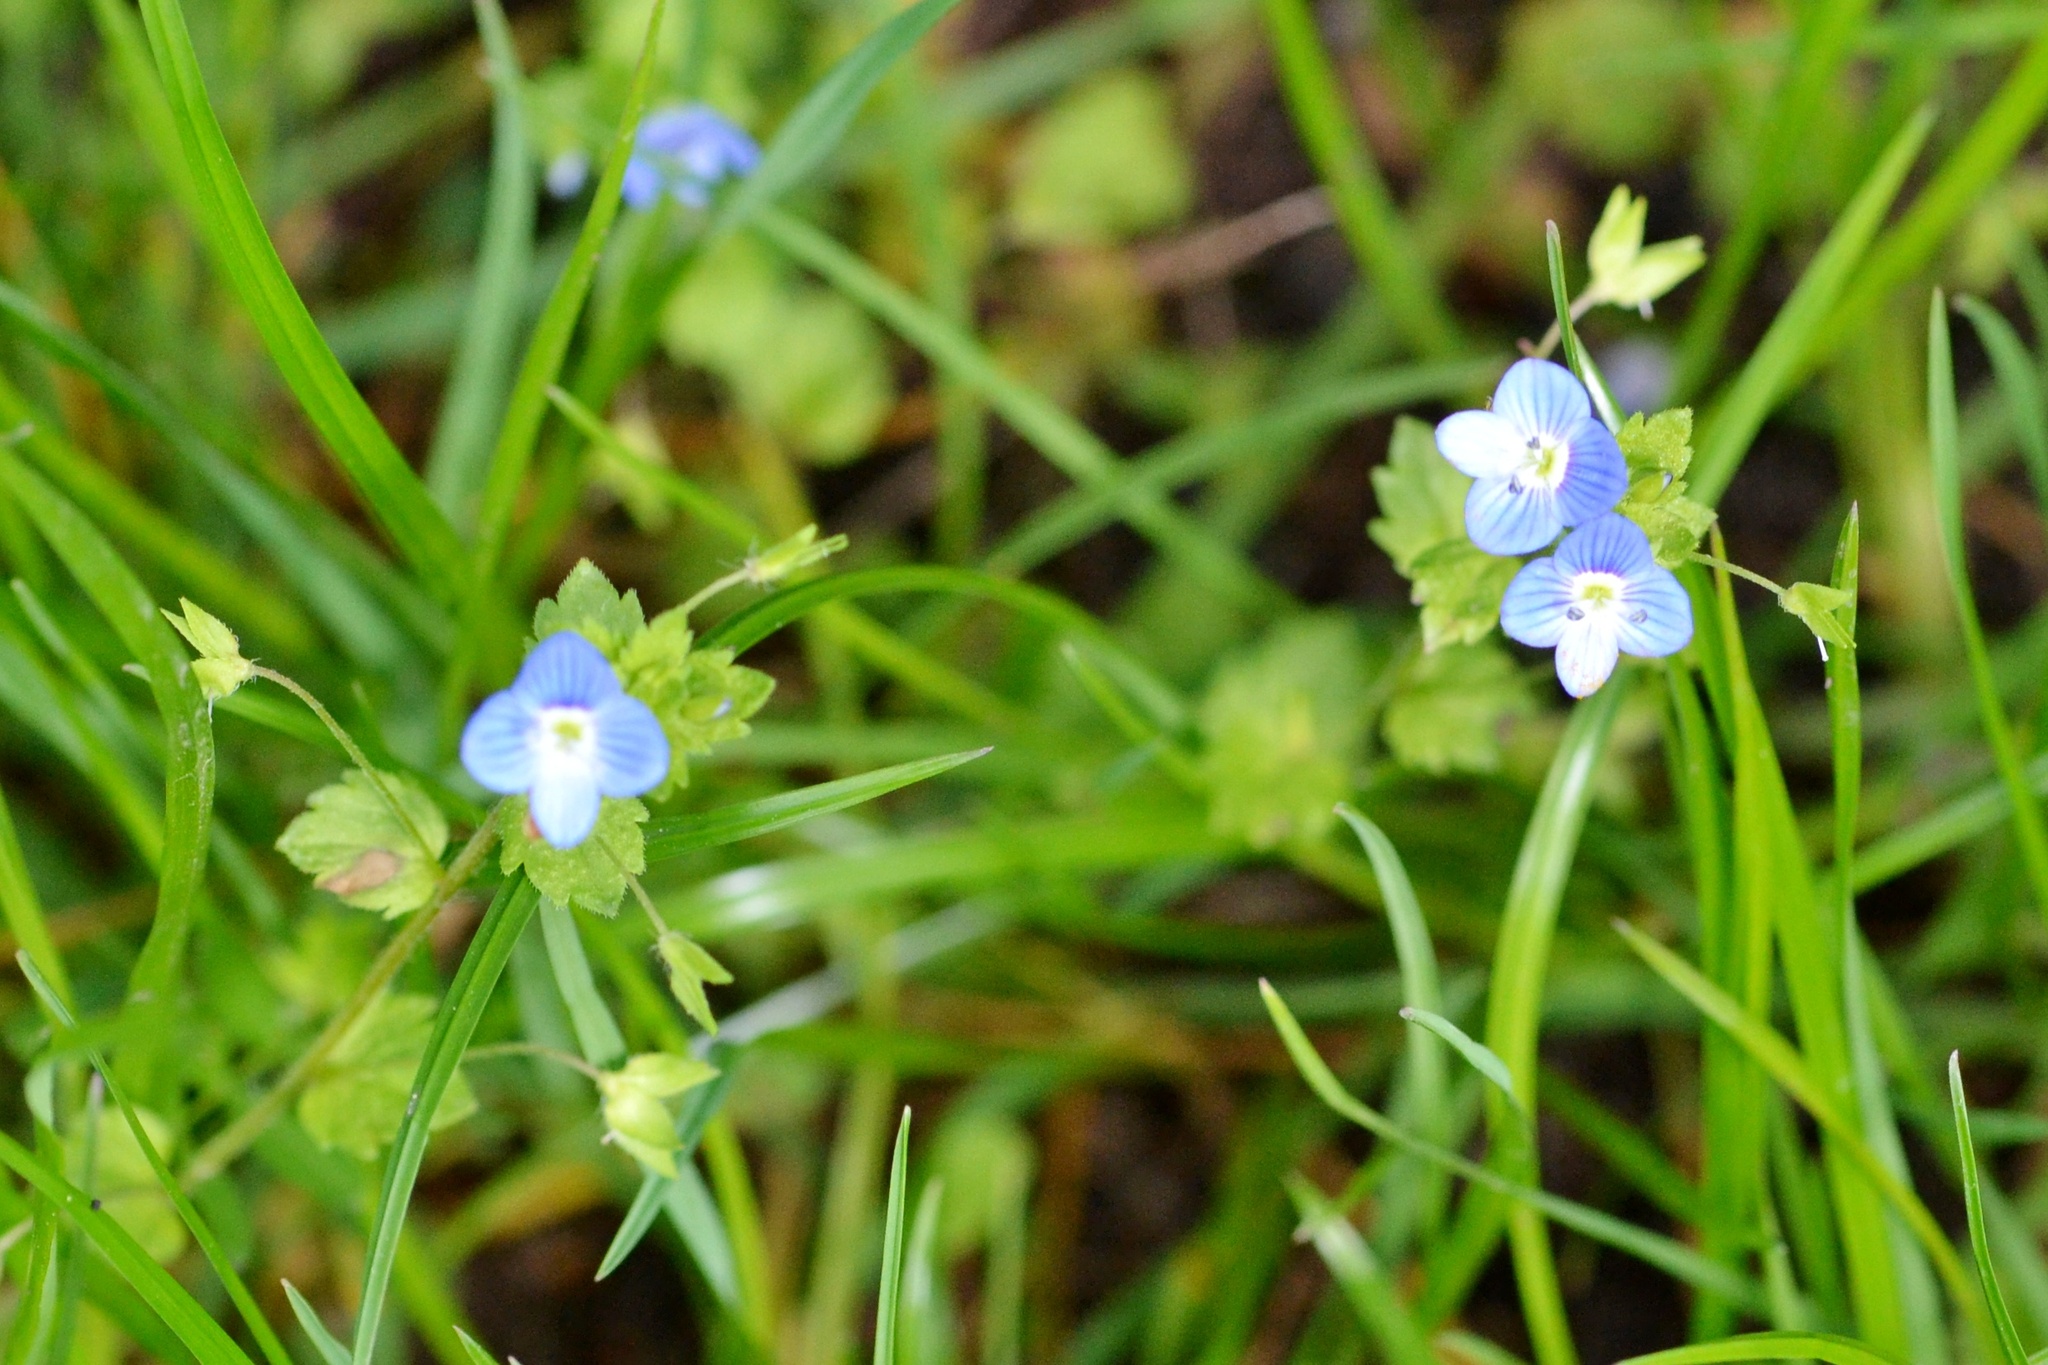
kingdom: Plantae
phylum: Tracheophyta
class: Magnoliopsida
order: Lamiales
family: Plantaginaceae
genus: Veronica
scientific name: Veronica persica
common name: Common field-speedwell
